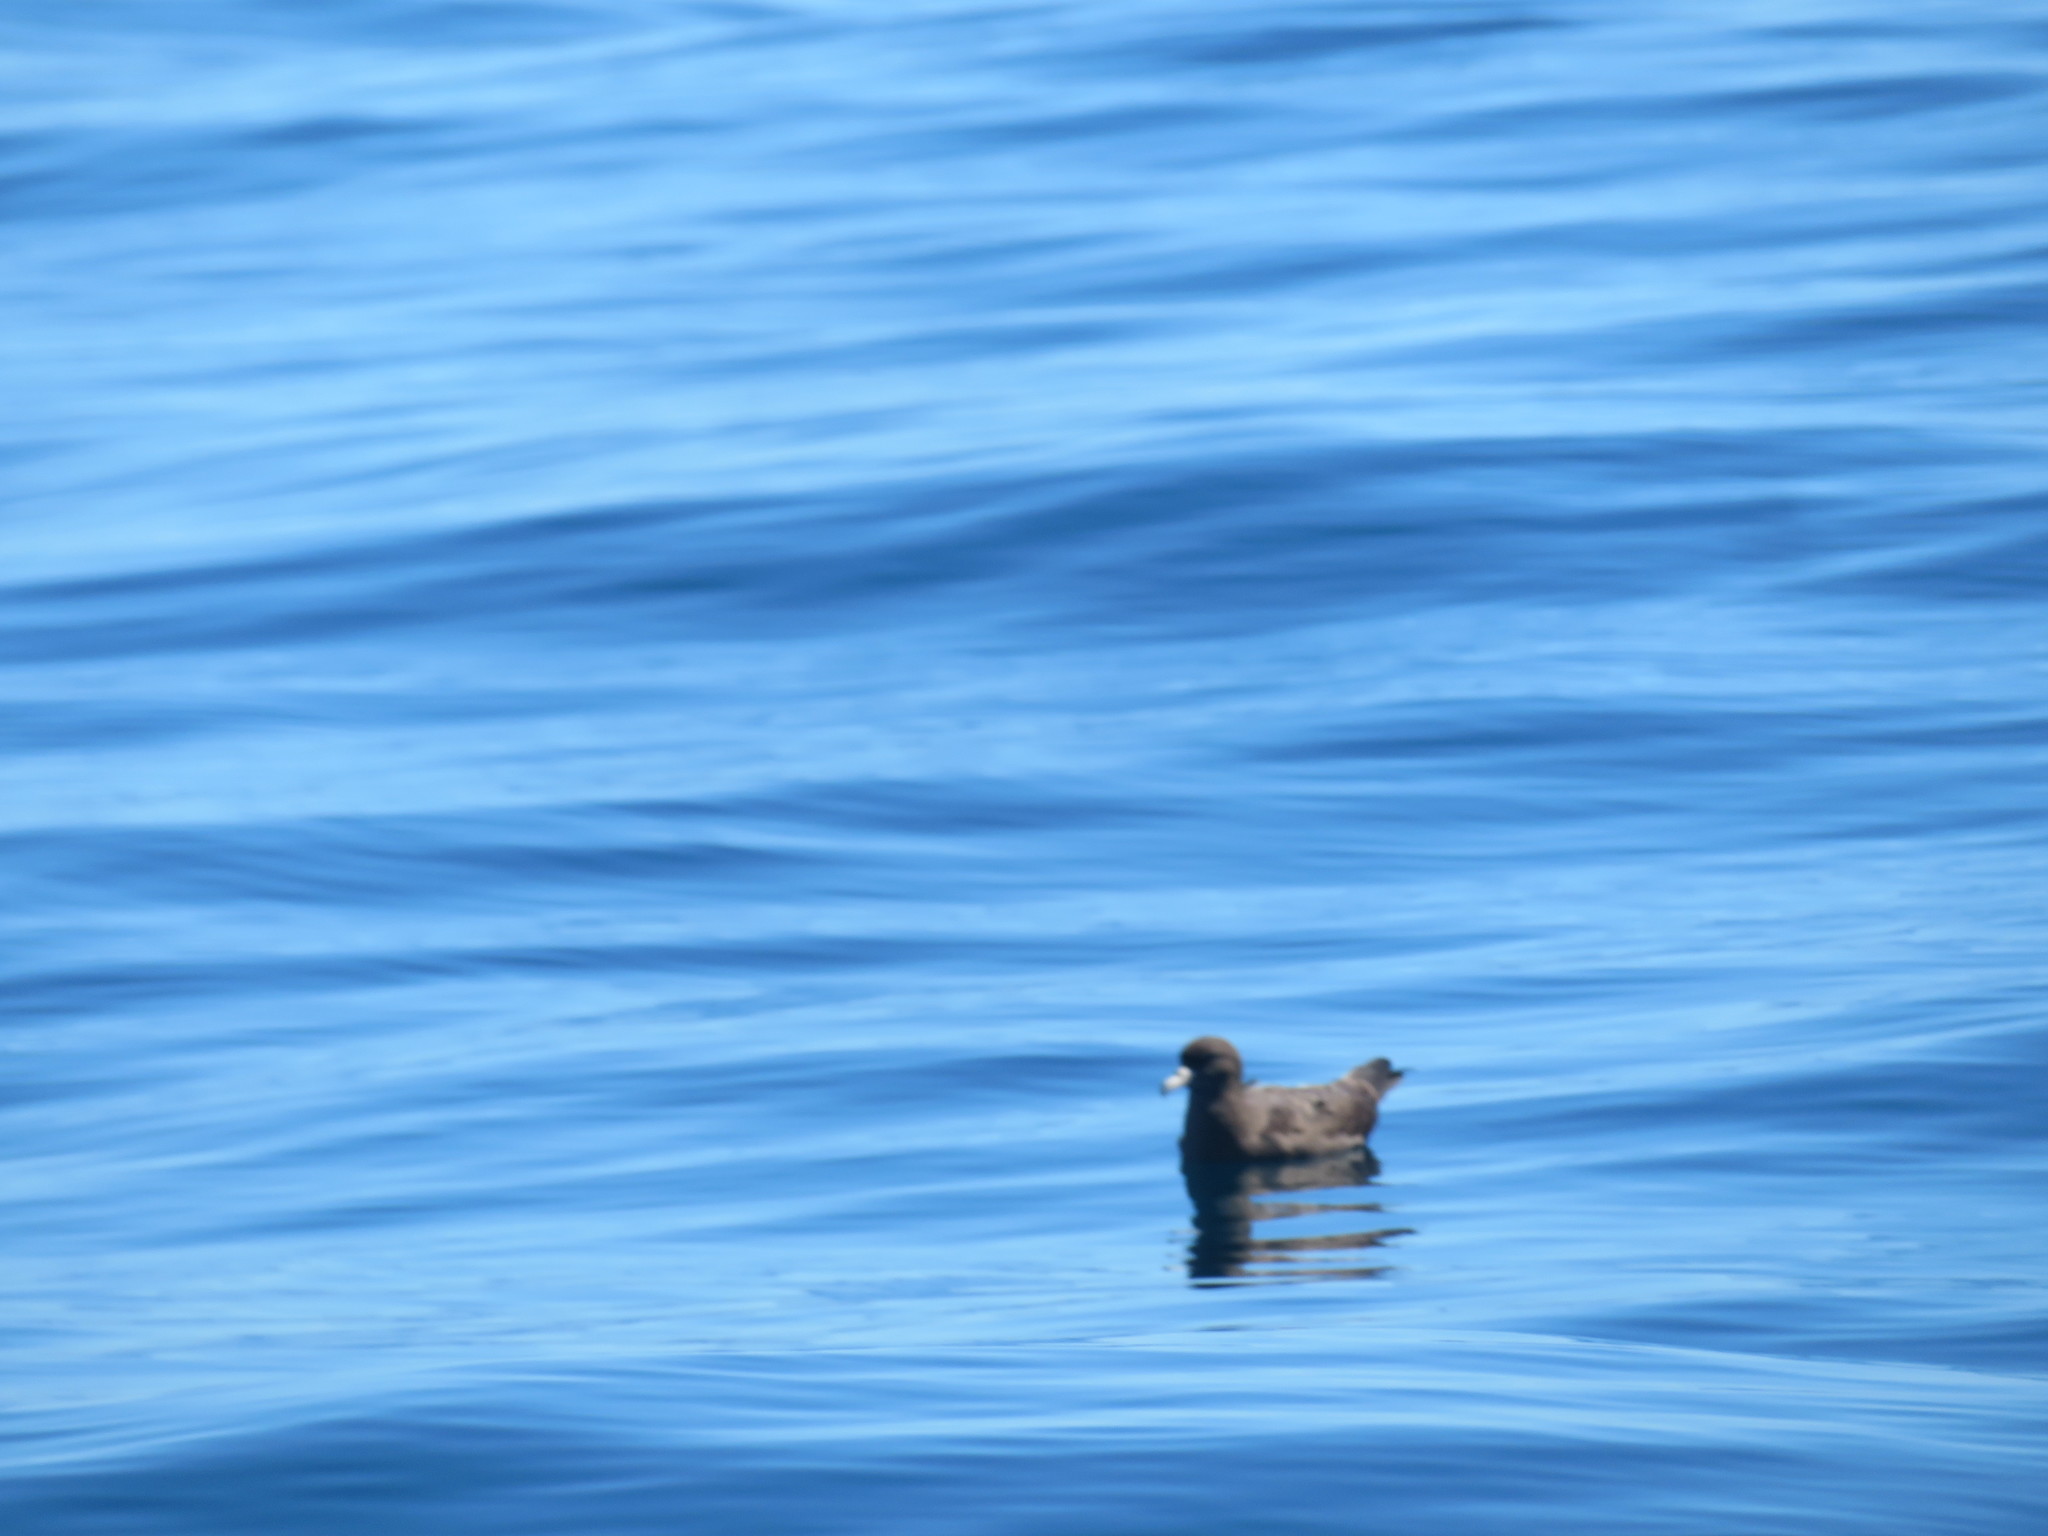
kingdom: Animalia
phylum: Chordata
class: Aves
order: Procellariiformes
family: Procellariidae
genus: Puffinus
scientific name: Puffinus carneipes
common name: Flesh-footed shearwater
